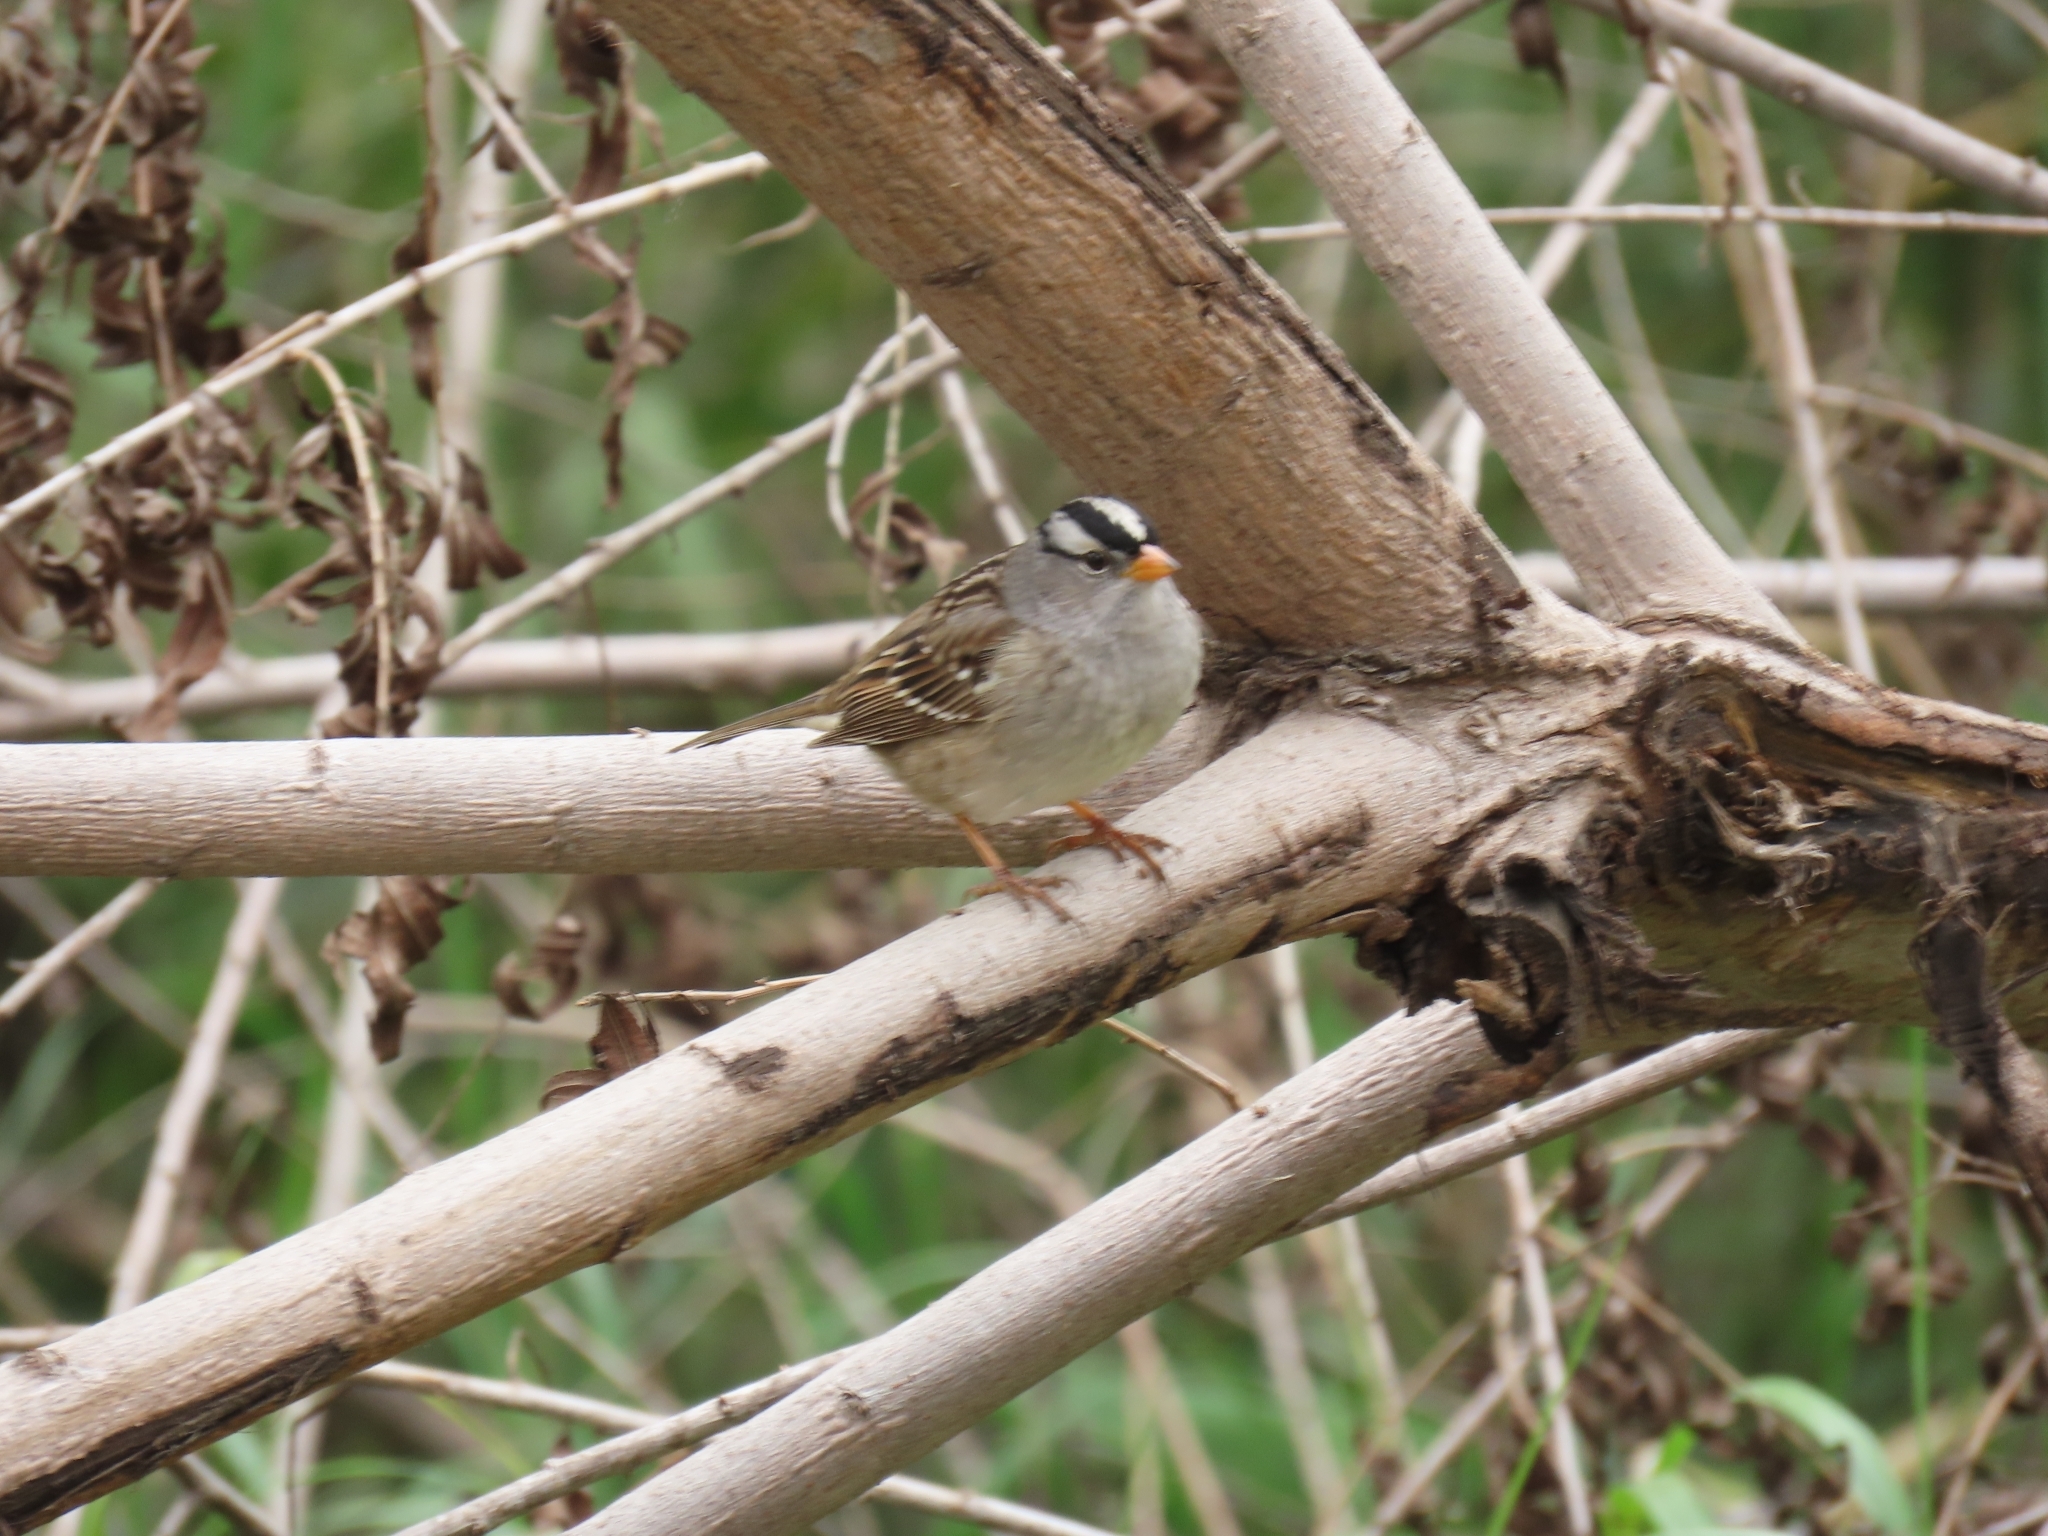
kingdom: Animalia
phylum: Chordata
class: Aves
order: Passeriformes
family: Passerellidae
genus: Zonotrichia
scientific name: Zonotrichia leucophrys
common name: White-crowned sparrow
